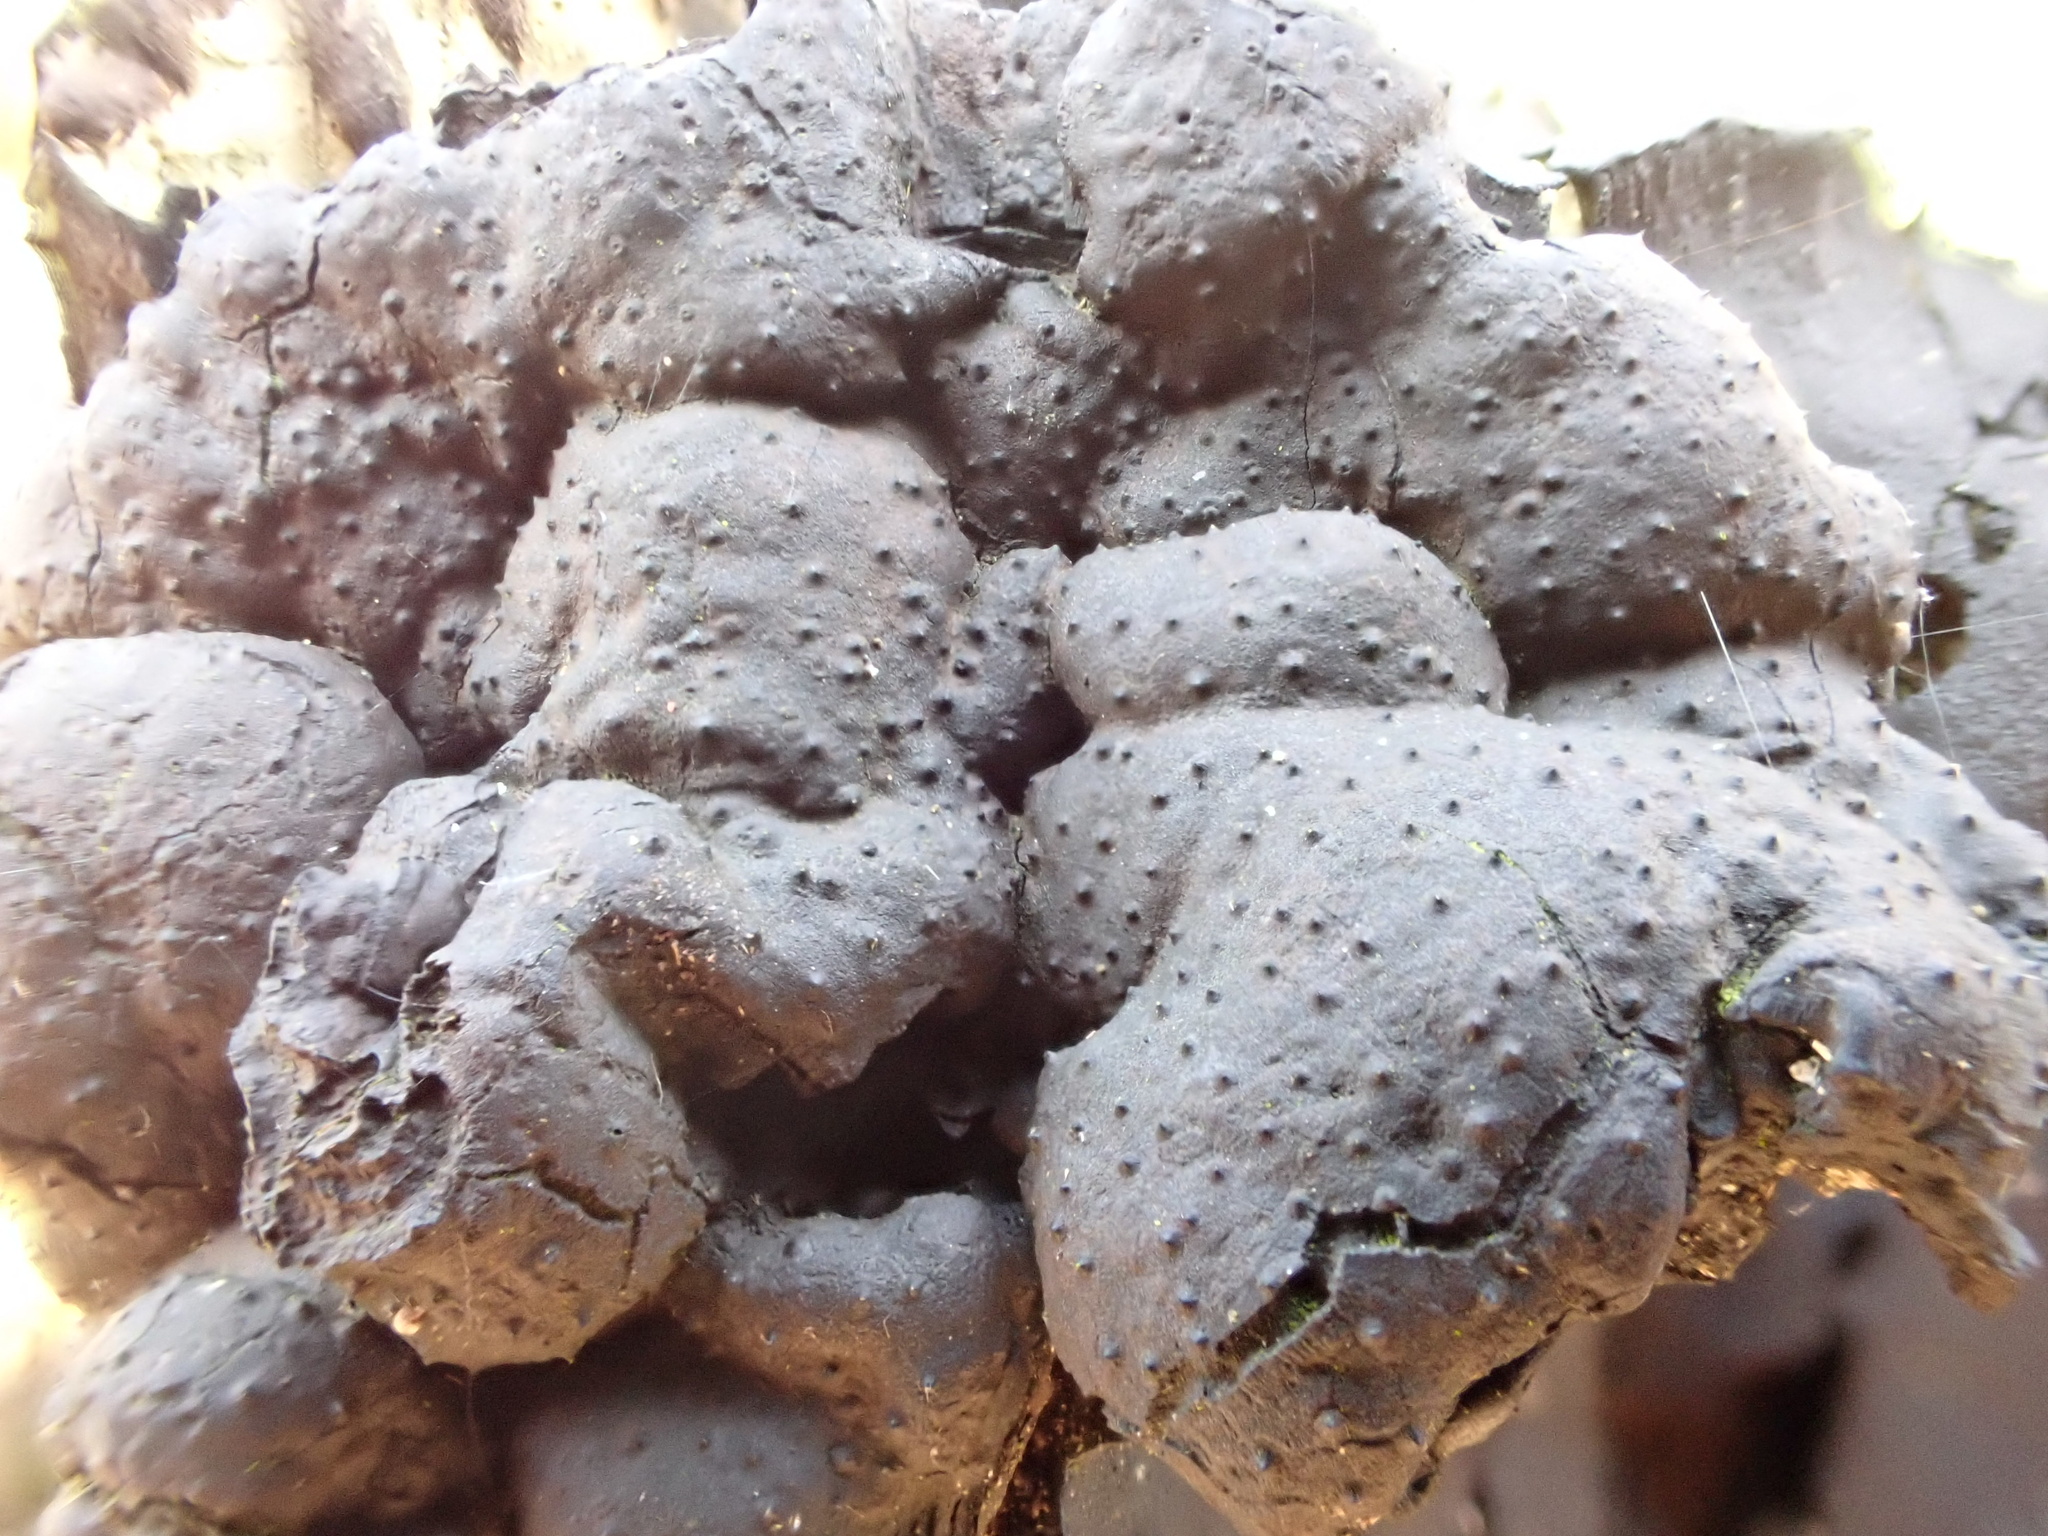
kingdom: Fungi
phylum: Ascomycota
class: Sordariomycetes
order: Xylariales
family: Xylariaceae
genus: Kretzschmaria
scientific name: Kretzschmaria deusta
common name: Brittle cinder
